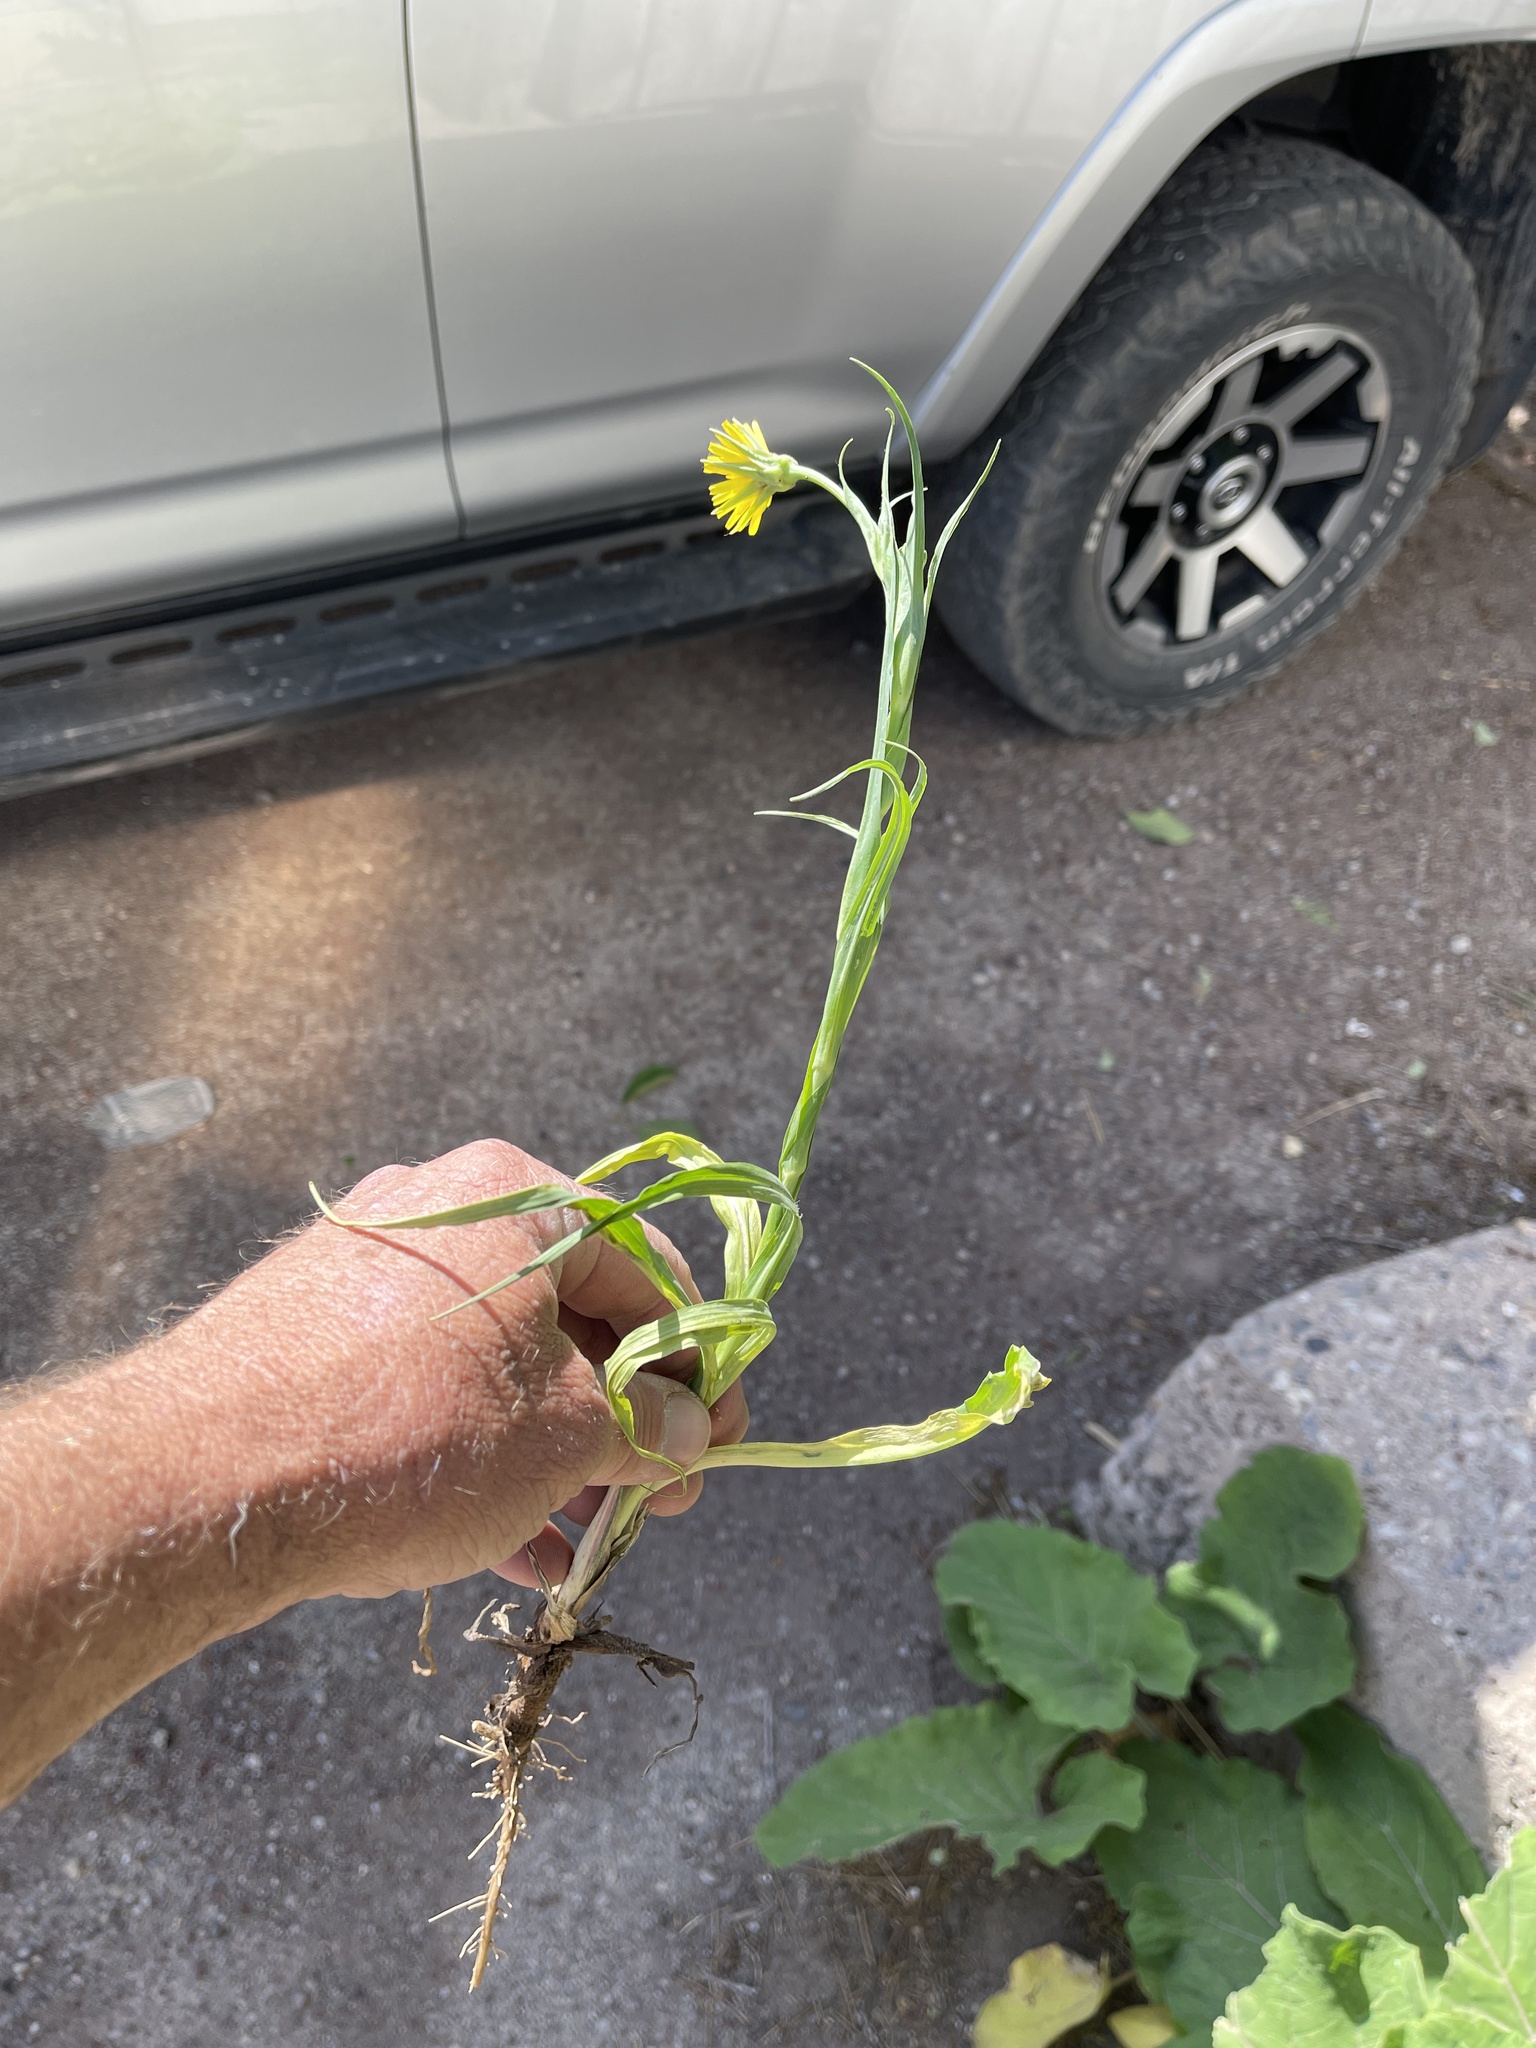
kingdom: Plantae
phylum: Tracheophyta
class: Magnoliopsida
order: Asterales
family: Asteraceae
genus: Tragopogon
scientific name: Tragopogon pratensis
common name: Goat's-beard
